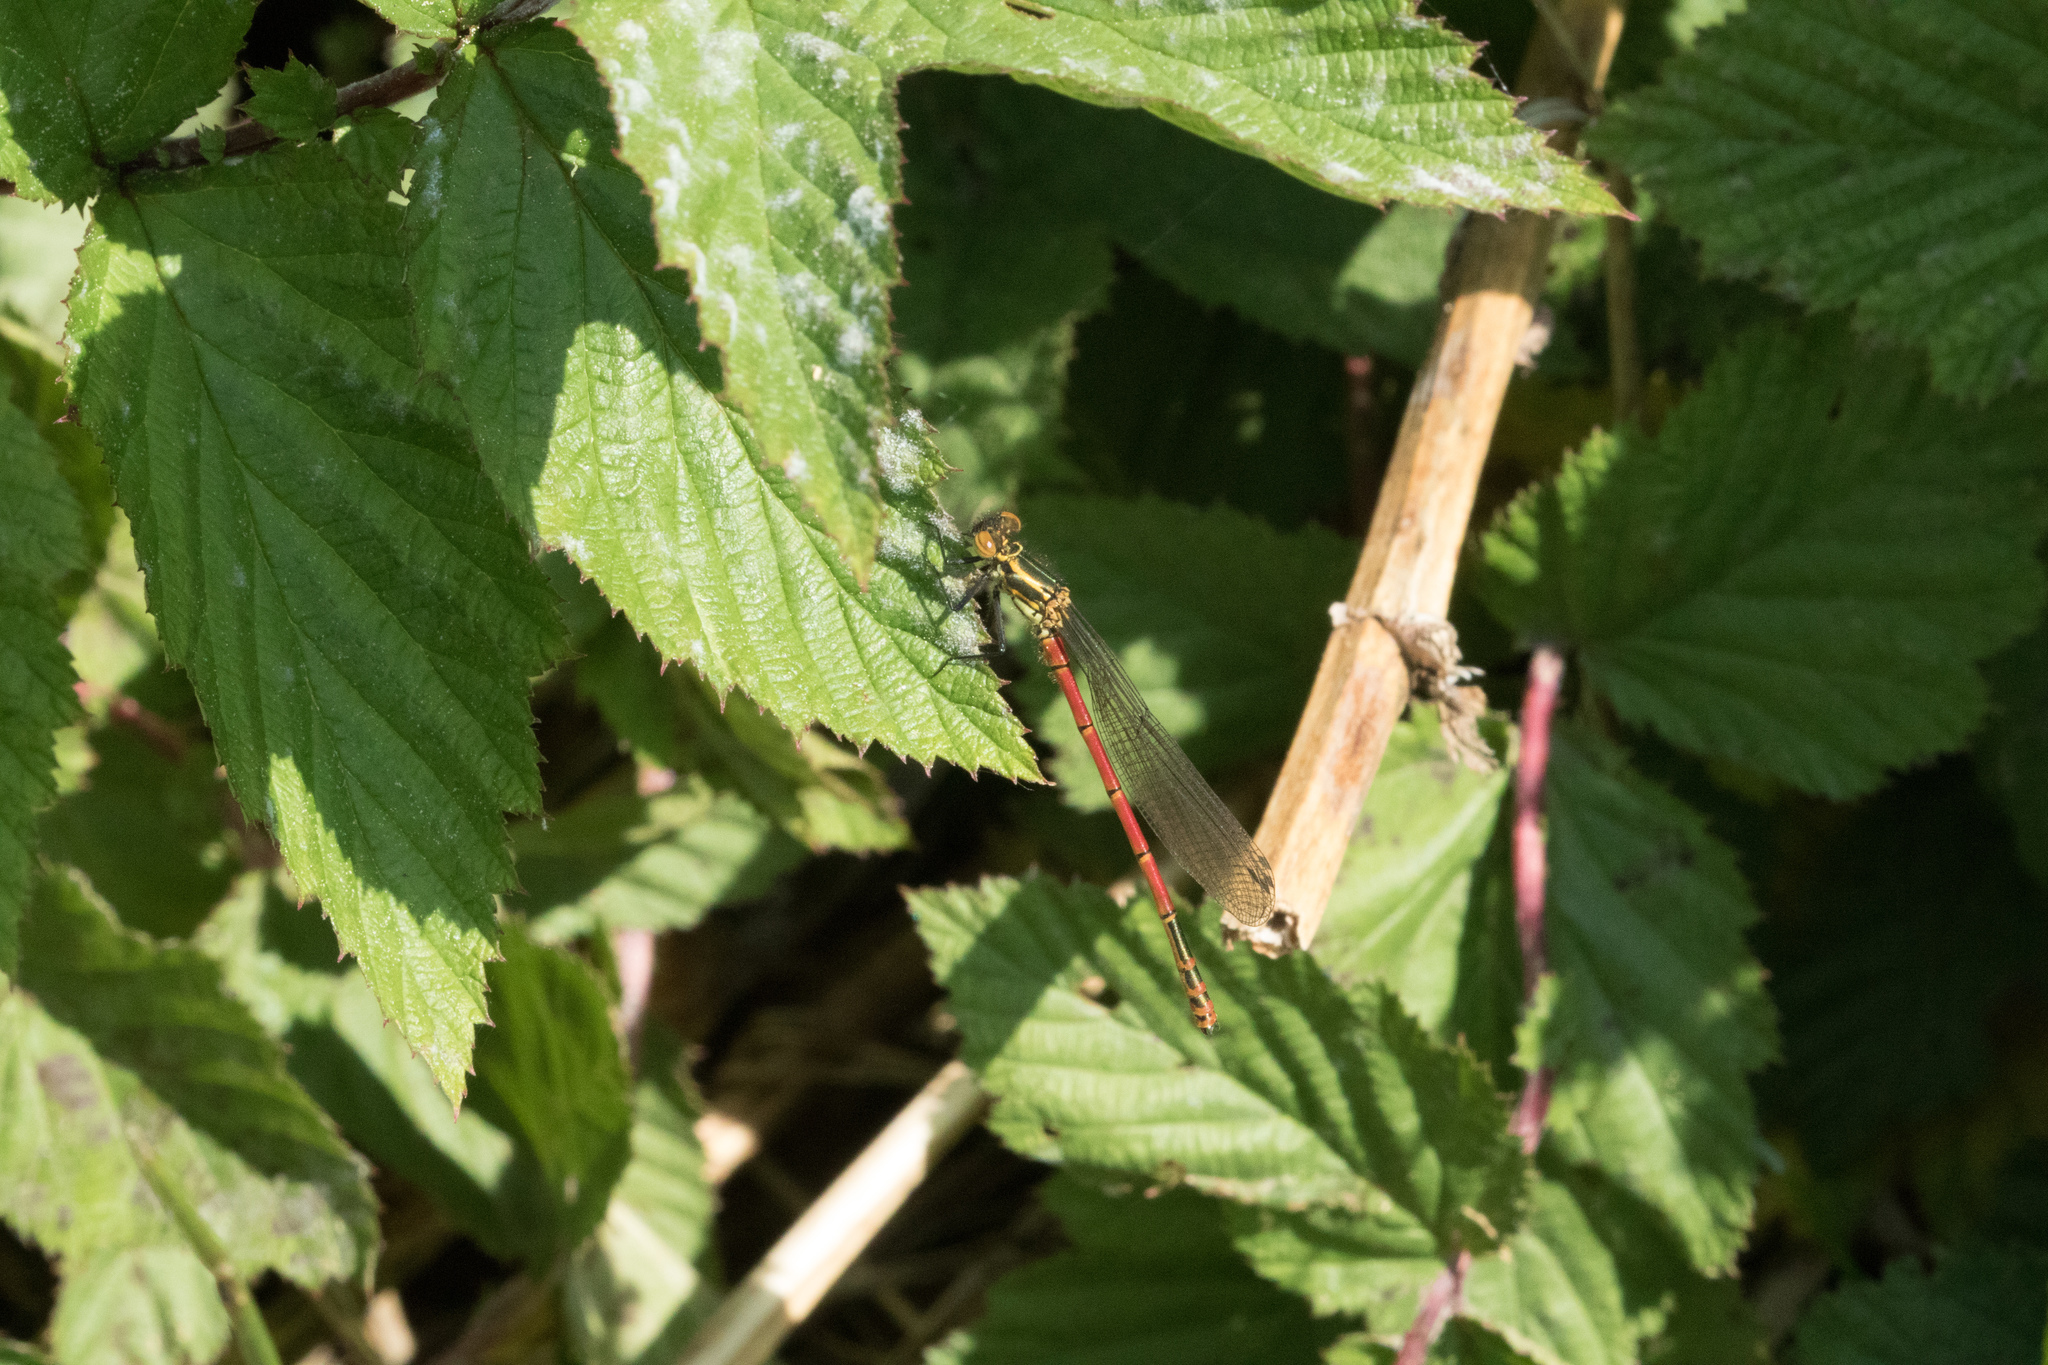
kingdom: Animalia
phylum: Arthropoda
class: Insecta
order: Odonata
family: Coenagrionidae
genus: Pyrrhosoma
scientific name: Pyrrhosoma nymphula
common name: Large red damsel
